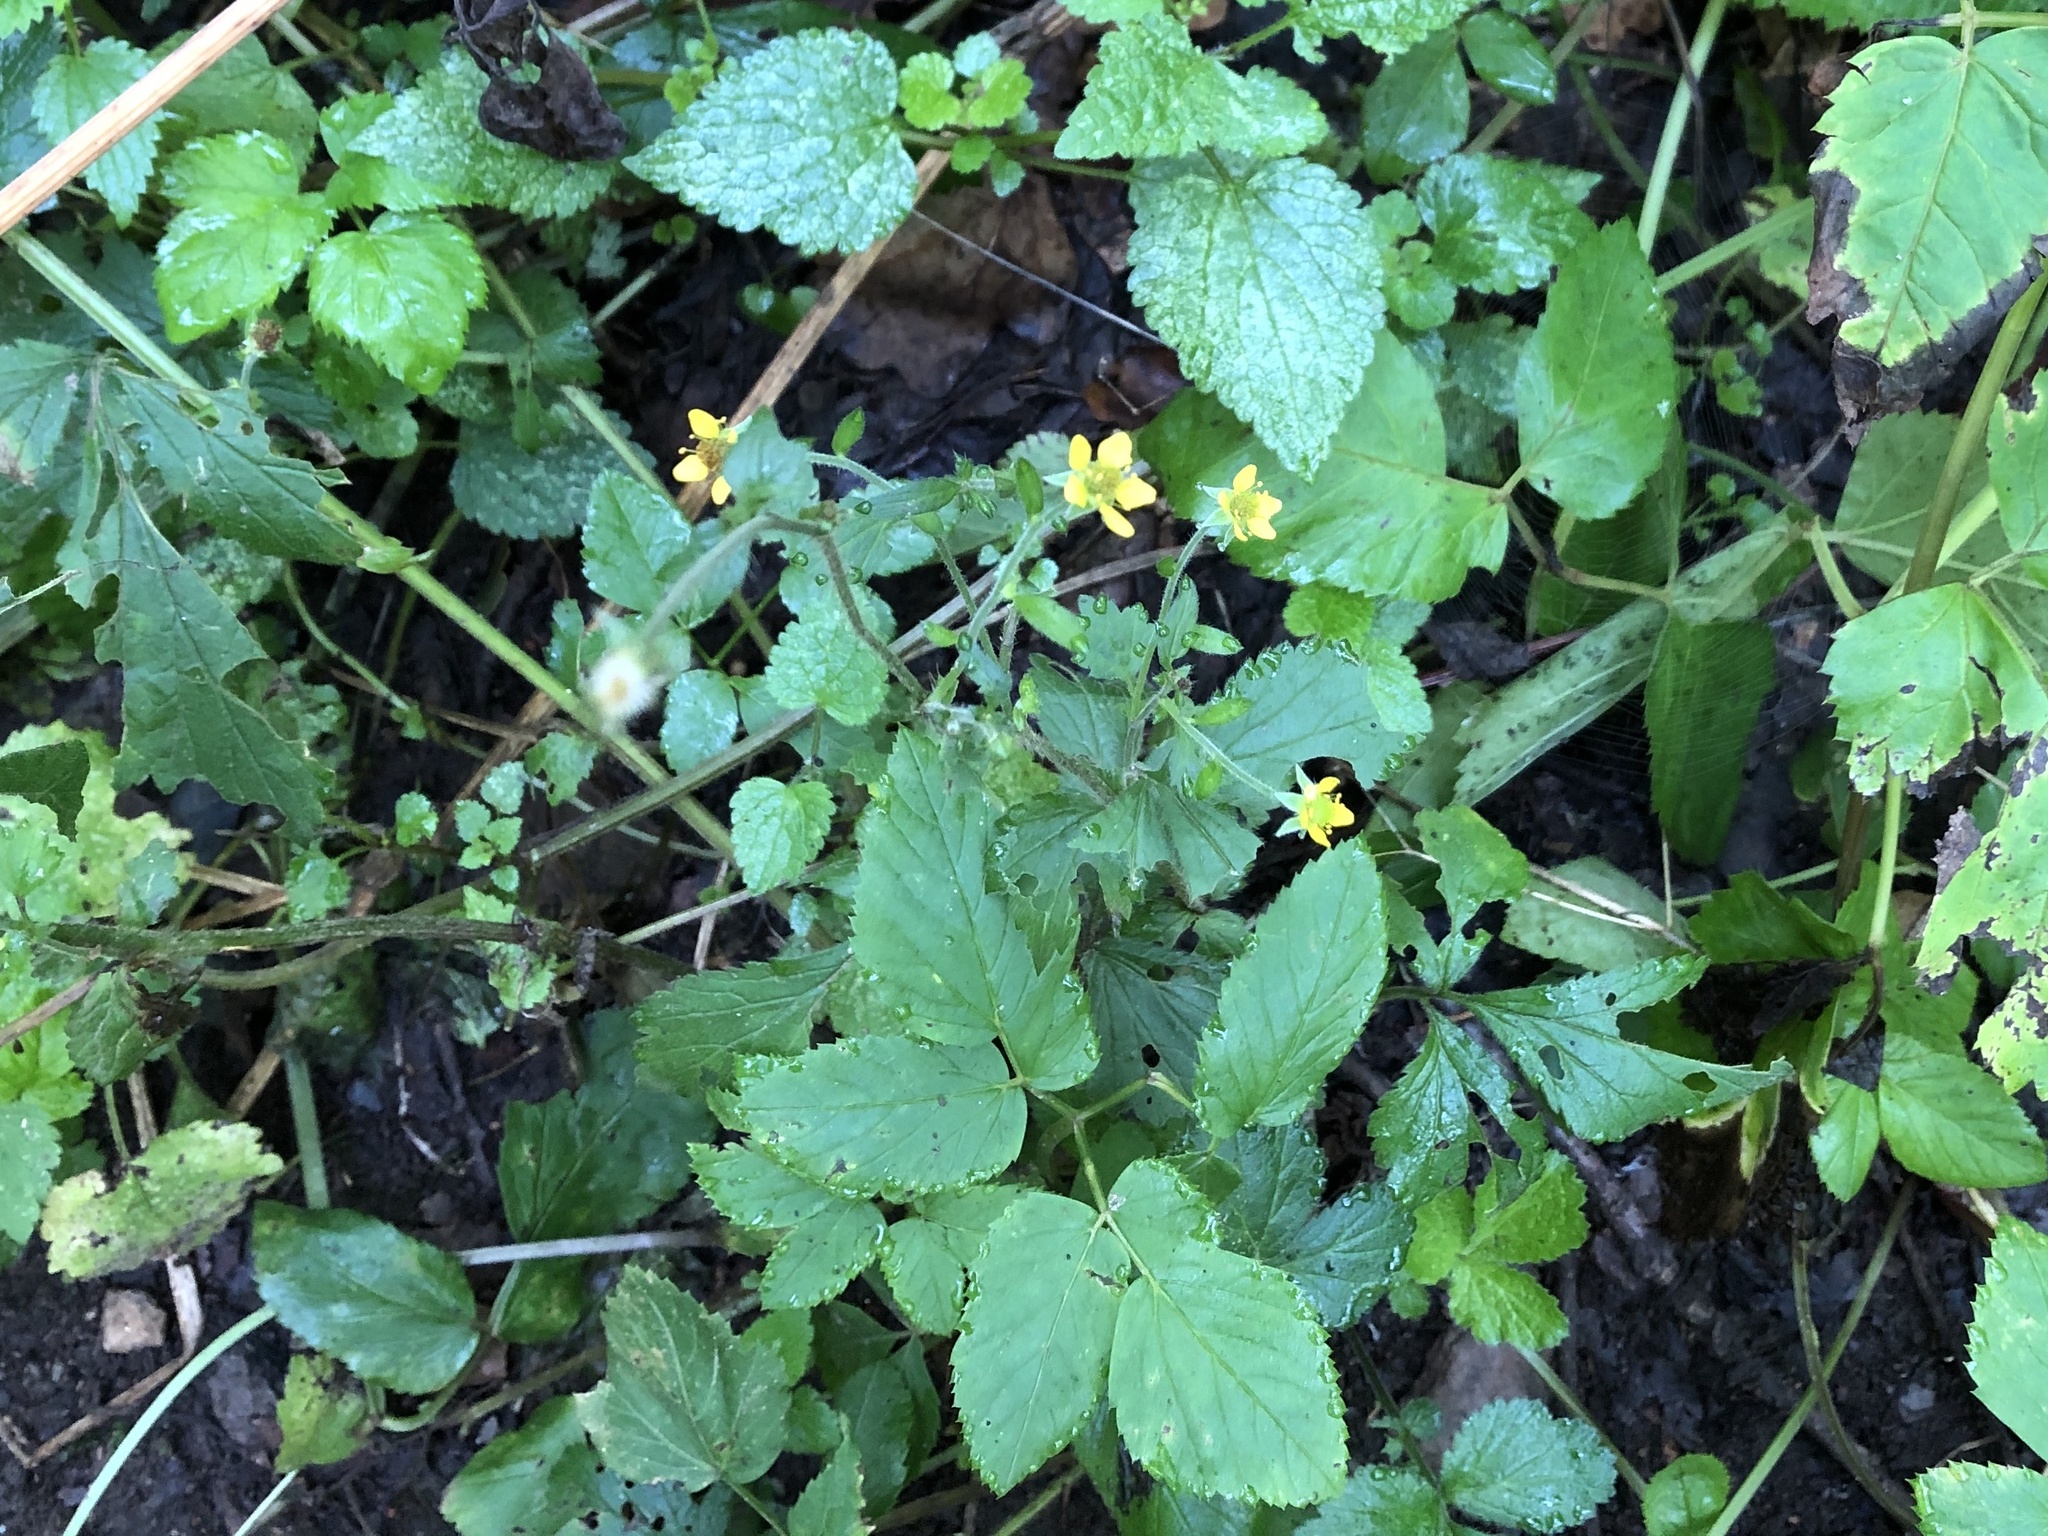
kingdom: Plantae
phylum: Tracheophyta
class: Magnoliopsida
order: Rosales
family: Rosaceae
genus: Geum
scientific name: Geum urbanum
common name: Wood avens
